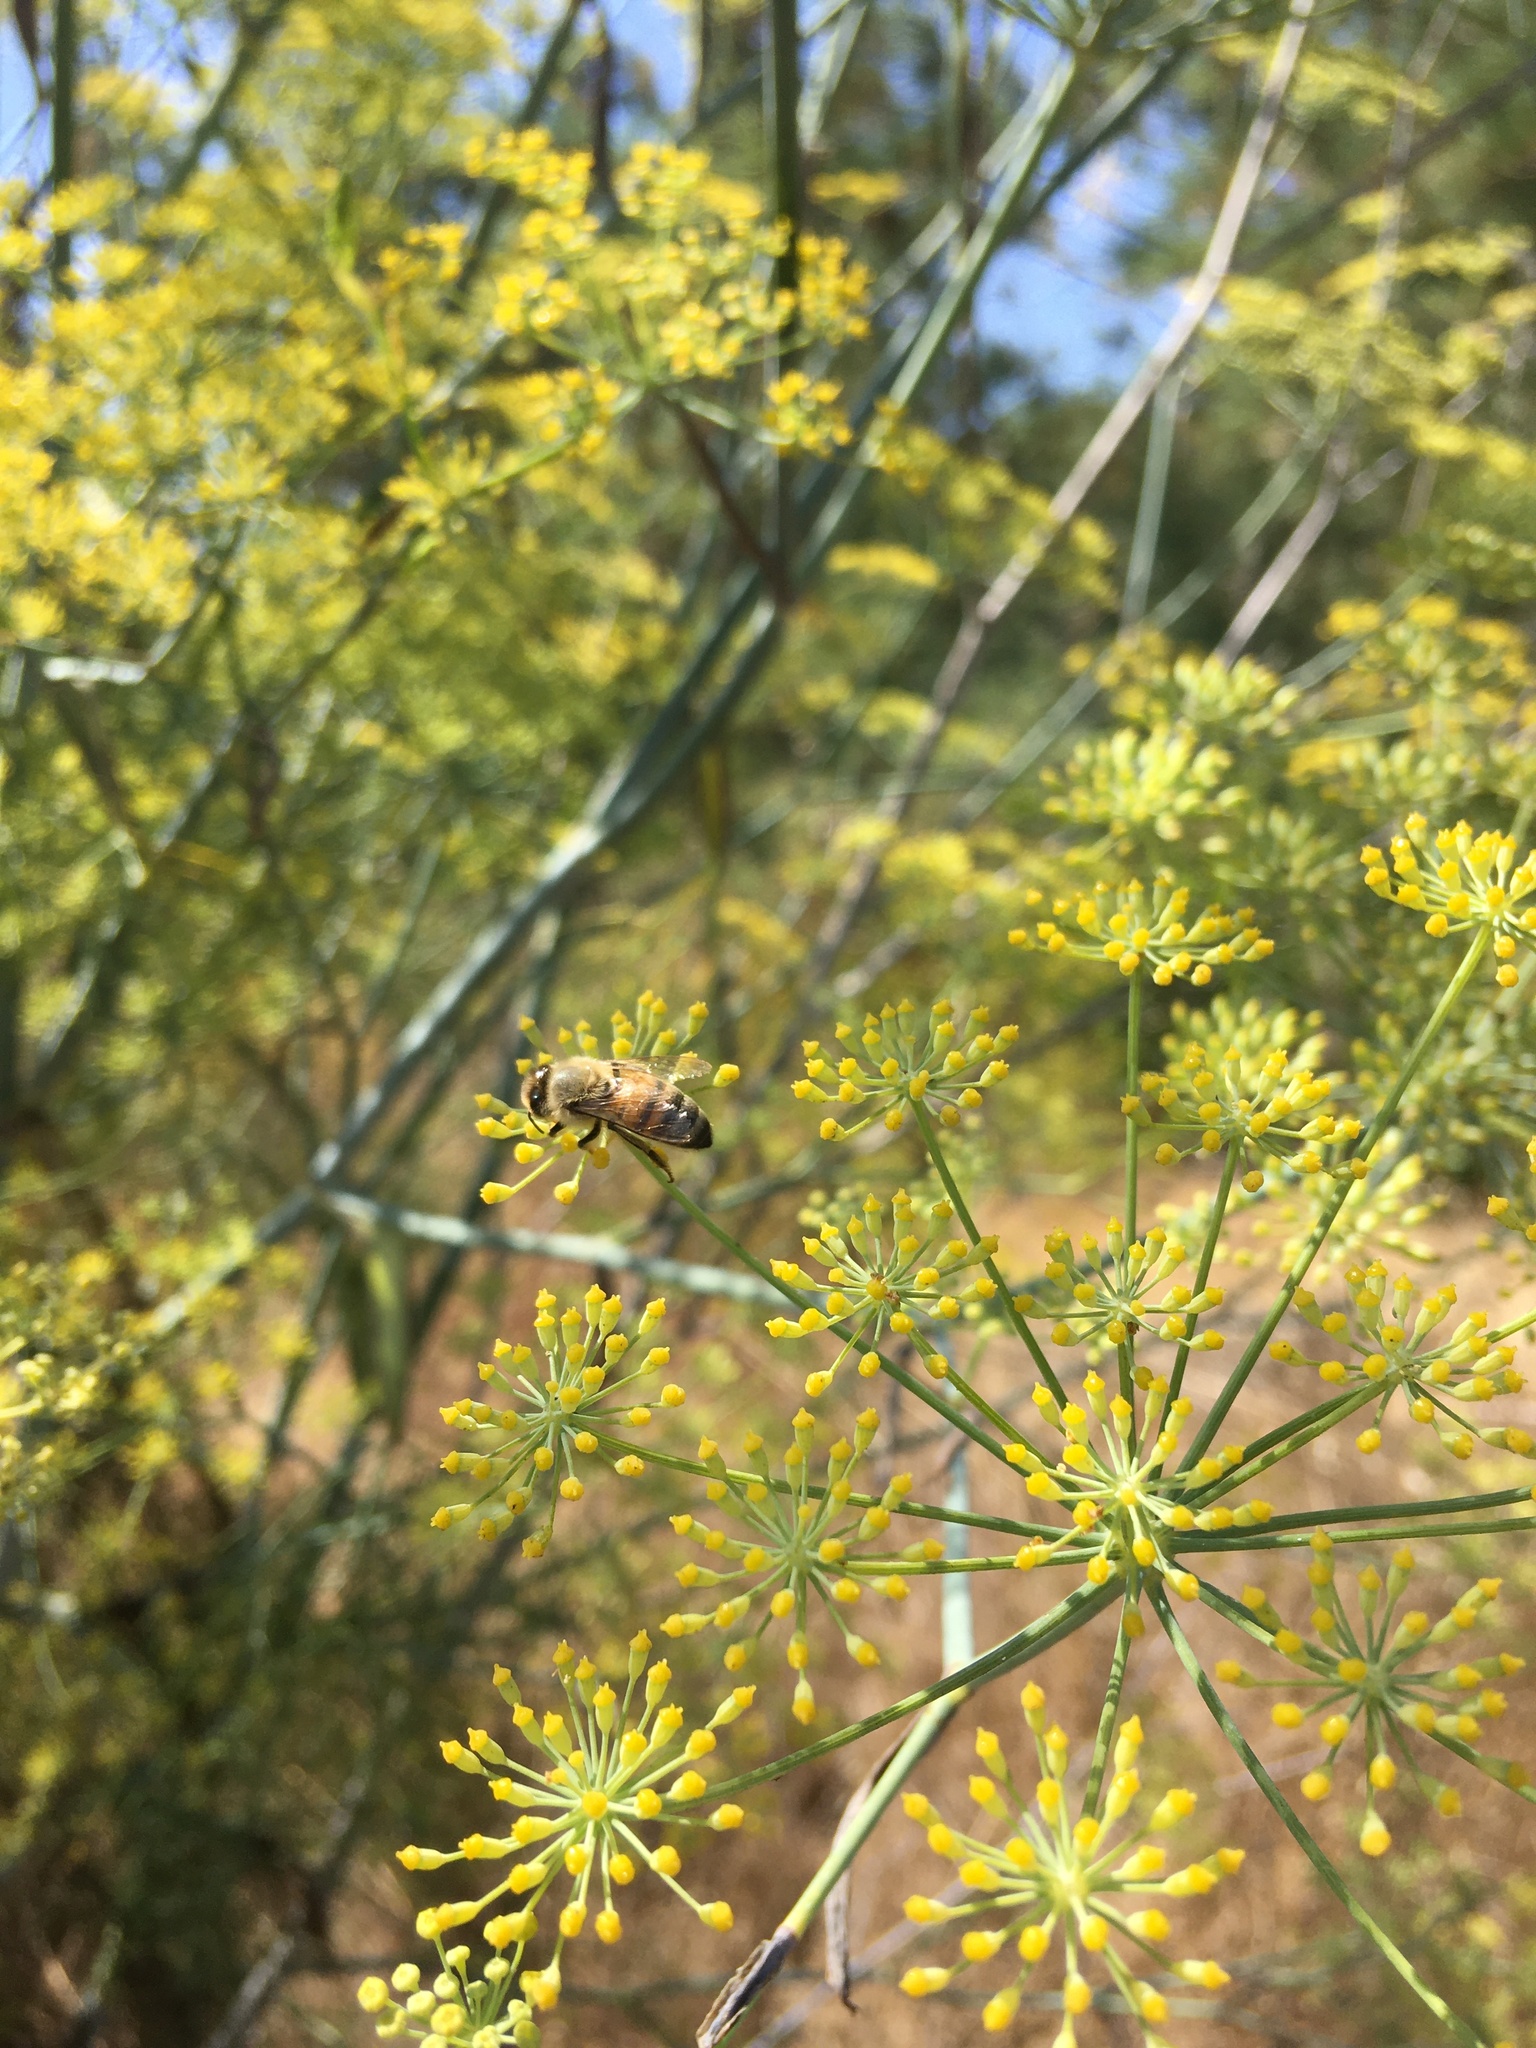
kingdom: Animalia
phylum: Arthropoda
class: Insecta
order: Hymenoptera
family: Apidae
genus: Apis
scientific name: Apis mellifera
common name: Honey bee
